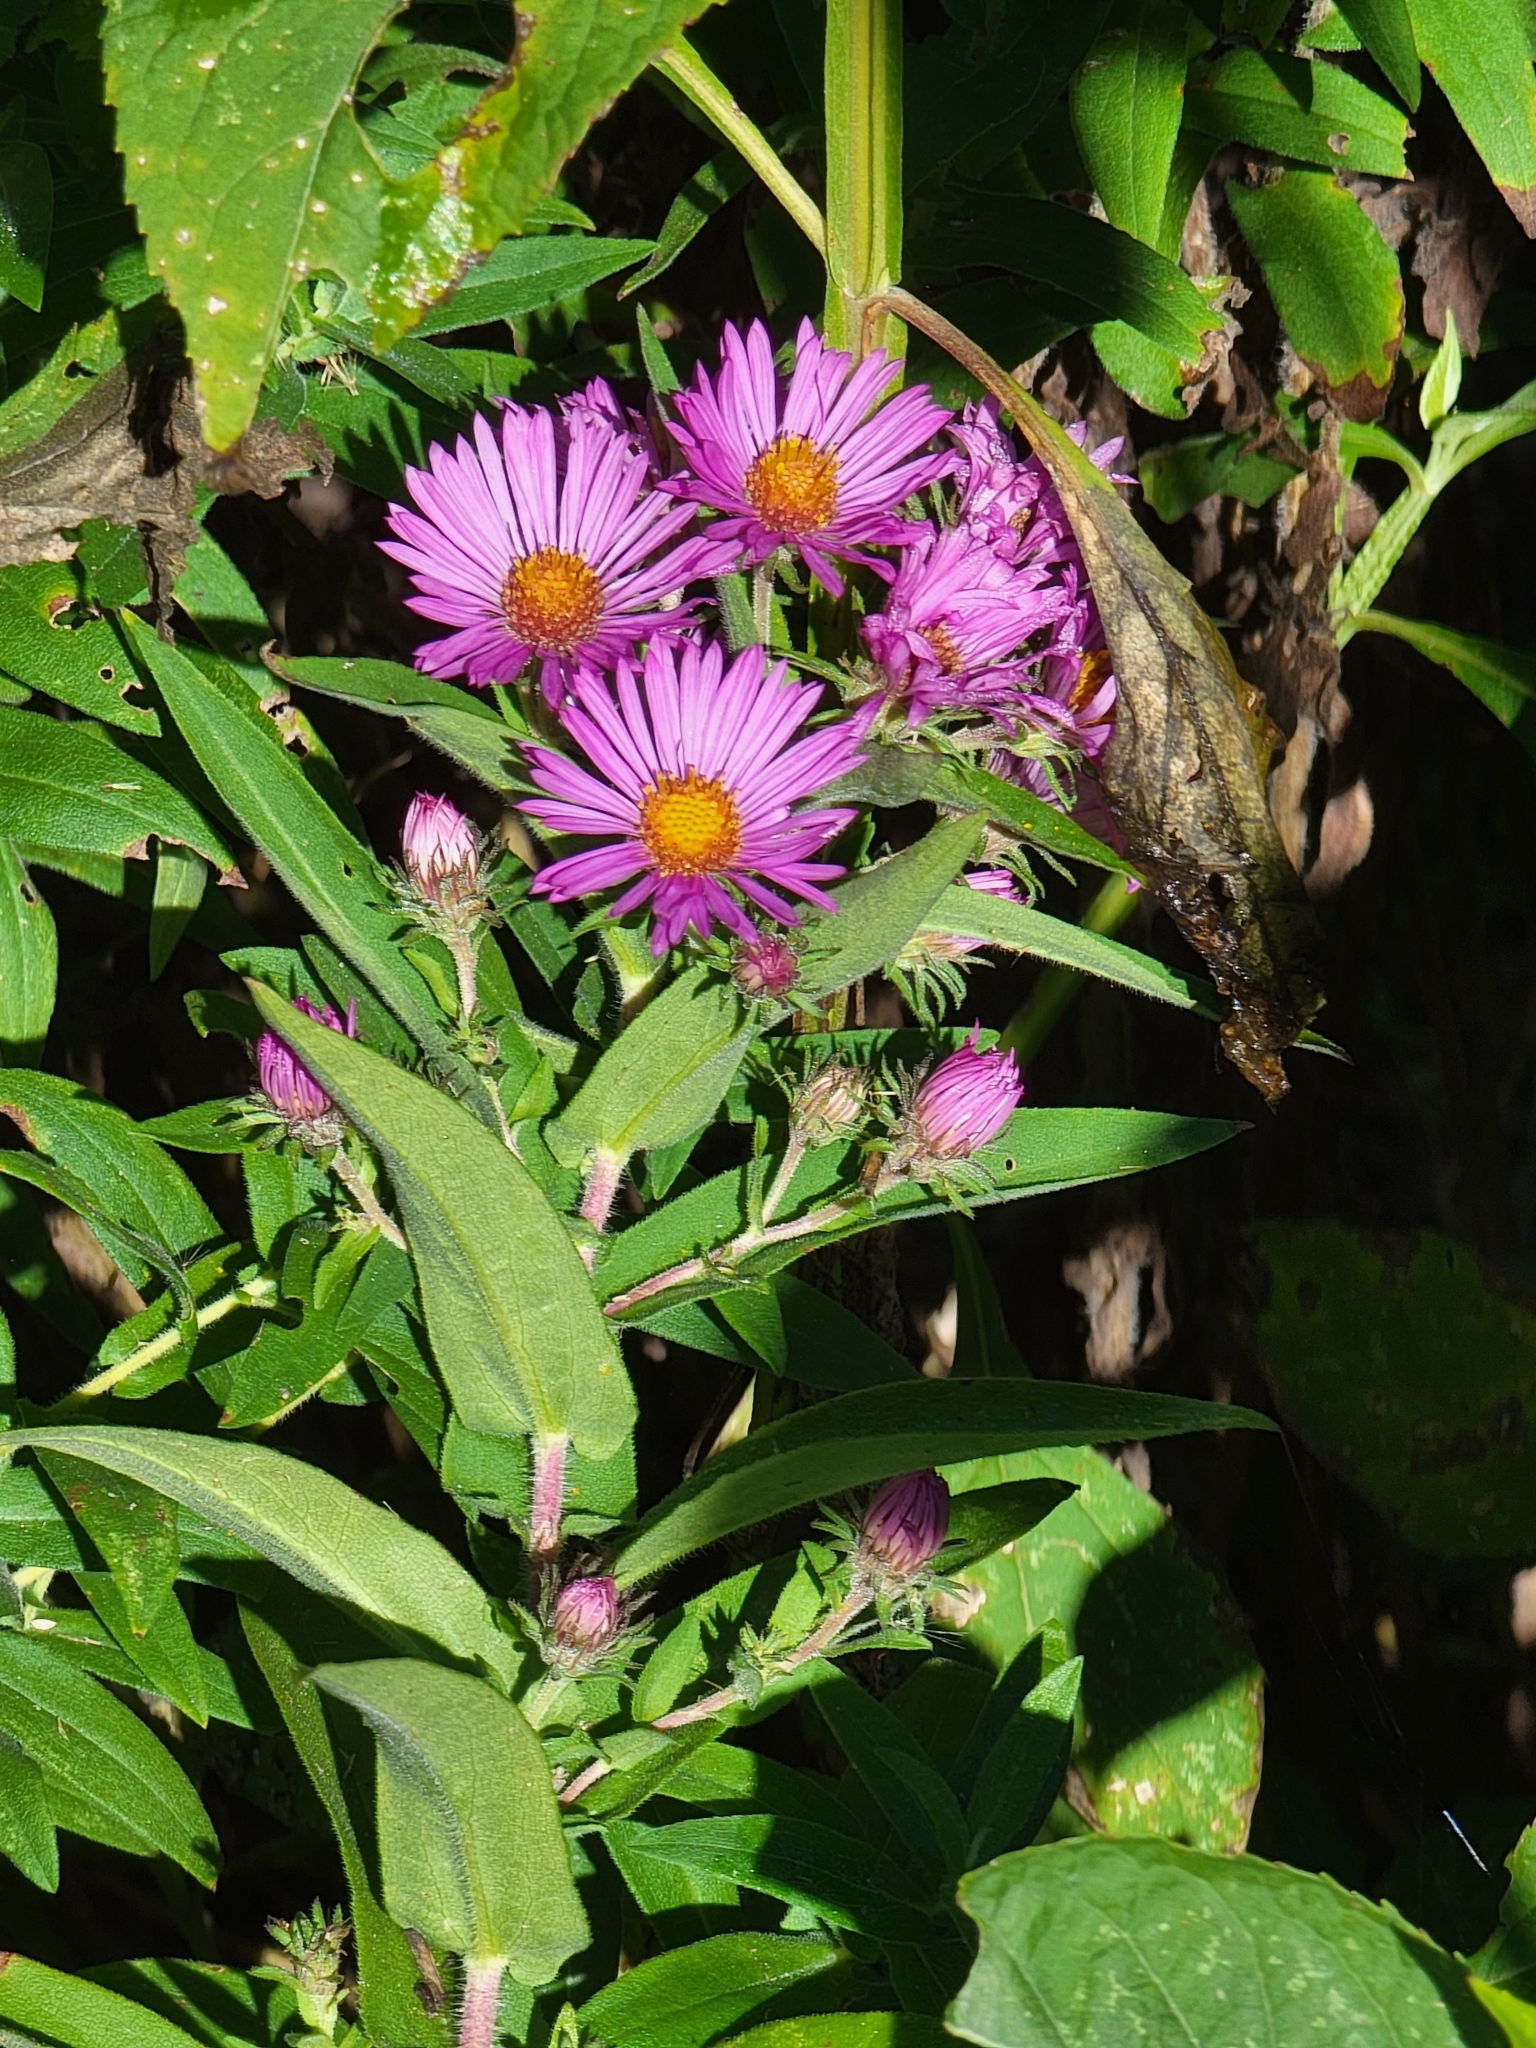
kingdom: Plantae
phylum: Tracheophyta
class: Magnoliopsida
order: Asterales
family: Asteraceae
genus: Symphyotrichum
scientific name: Symphyotrichum novae-angliae
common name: Michaelmas daisy
